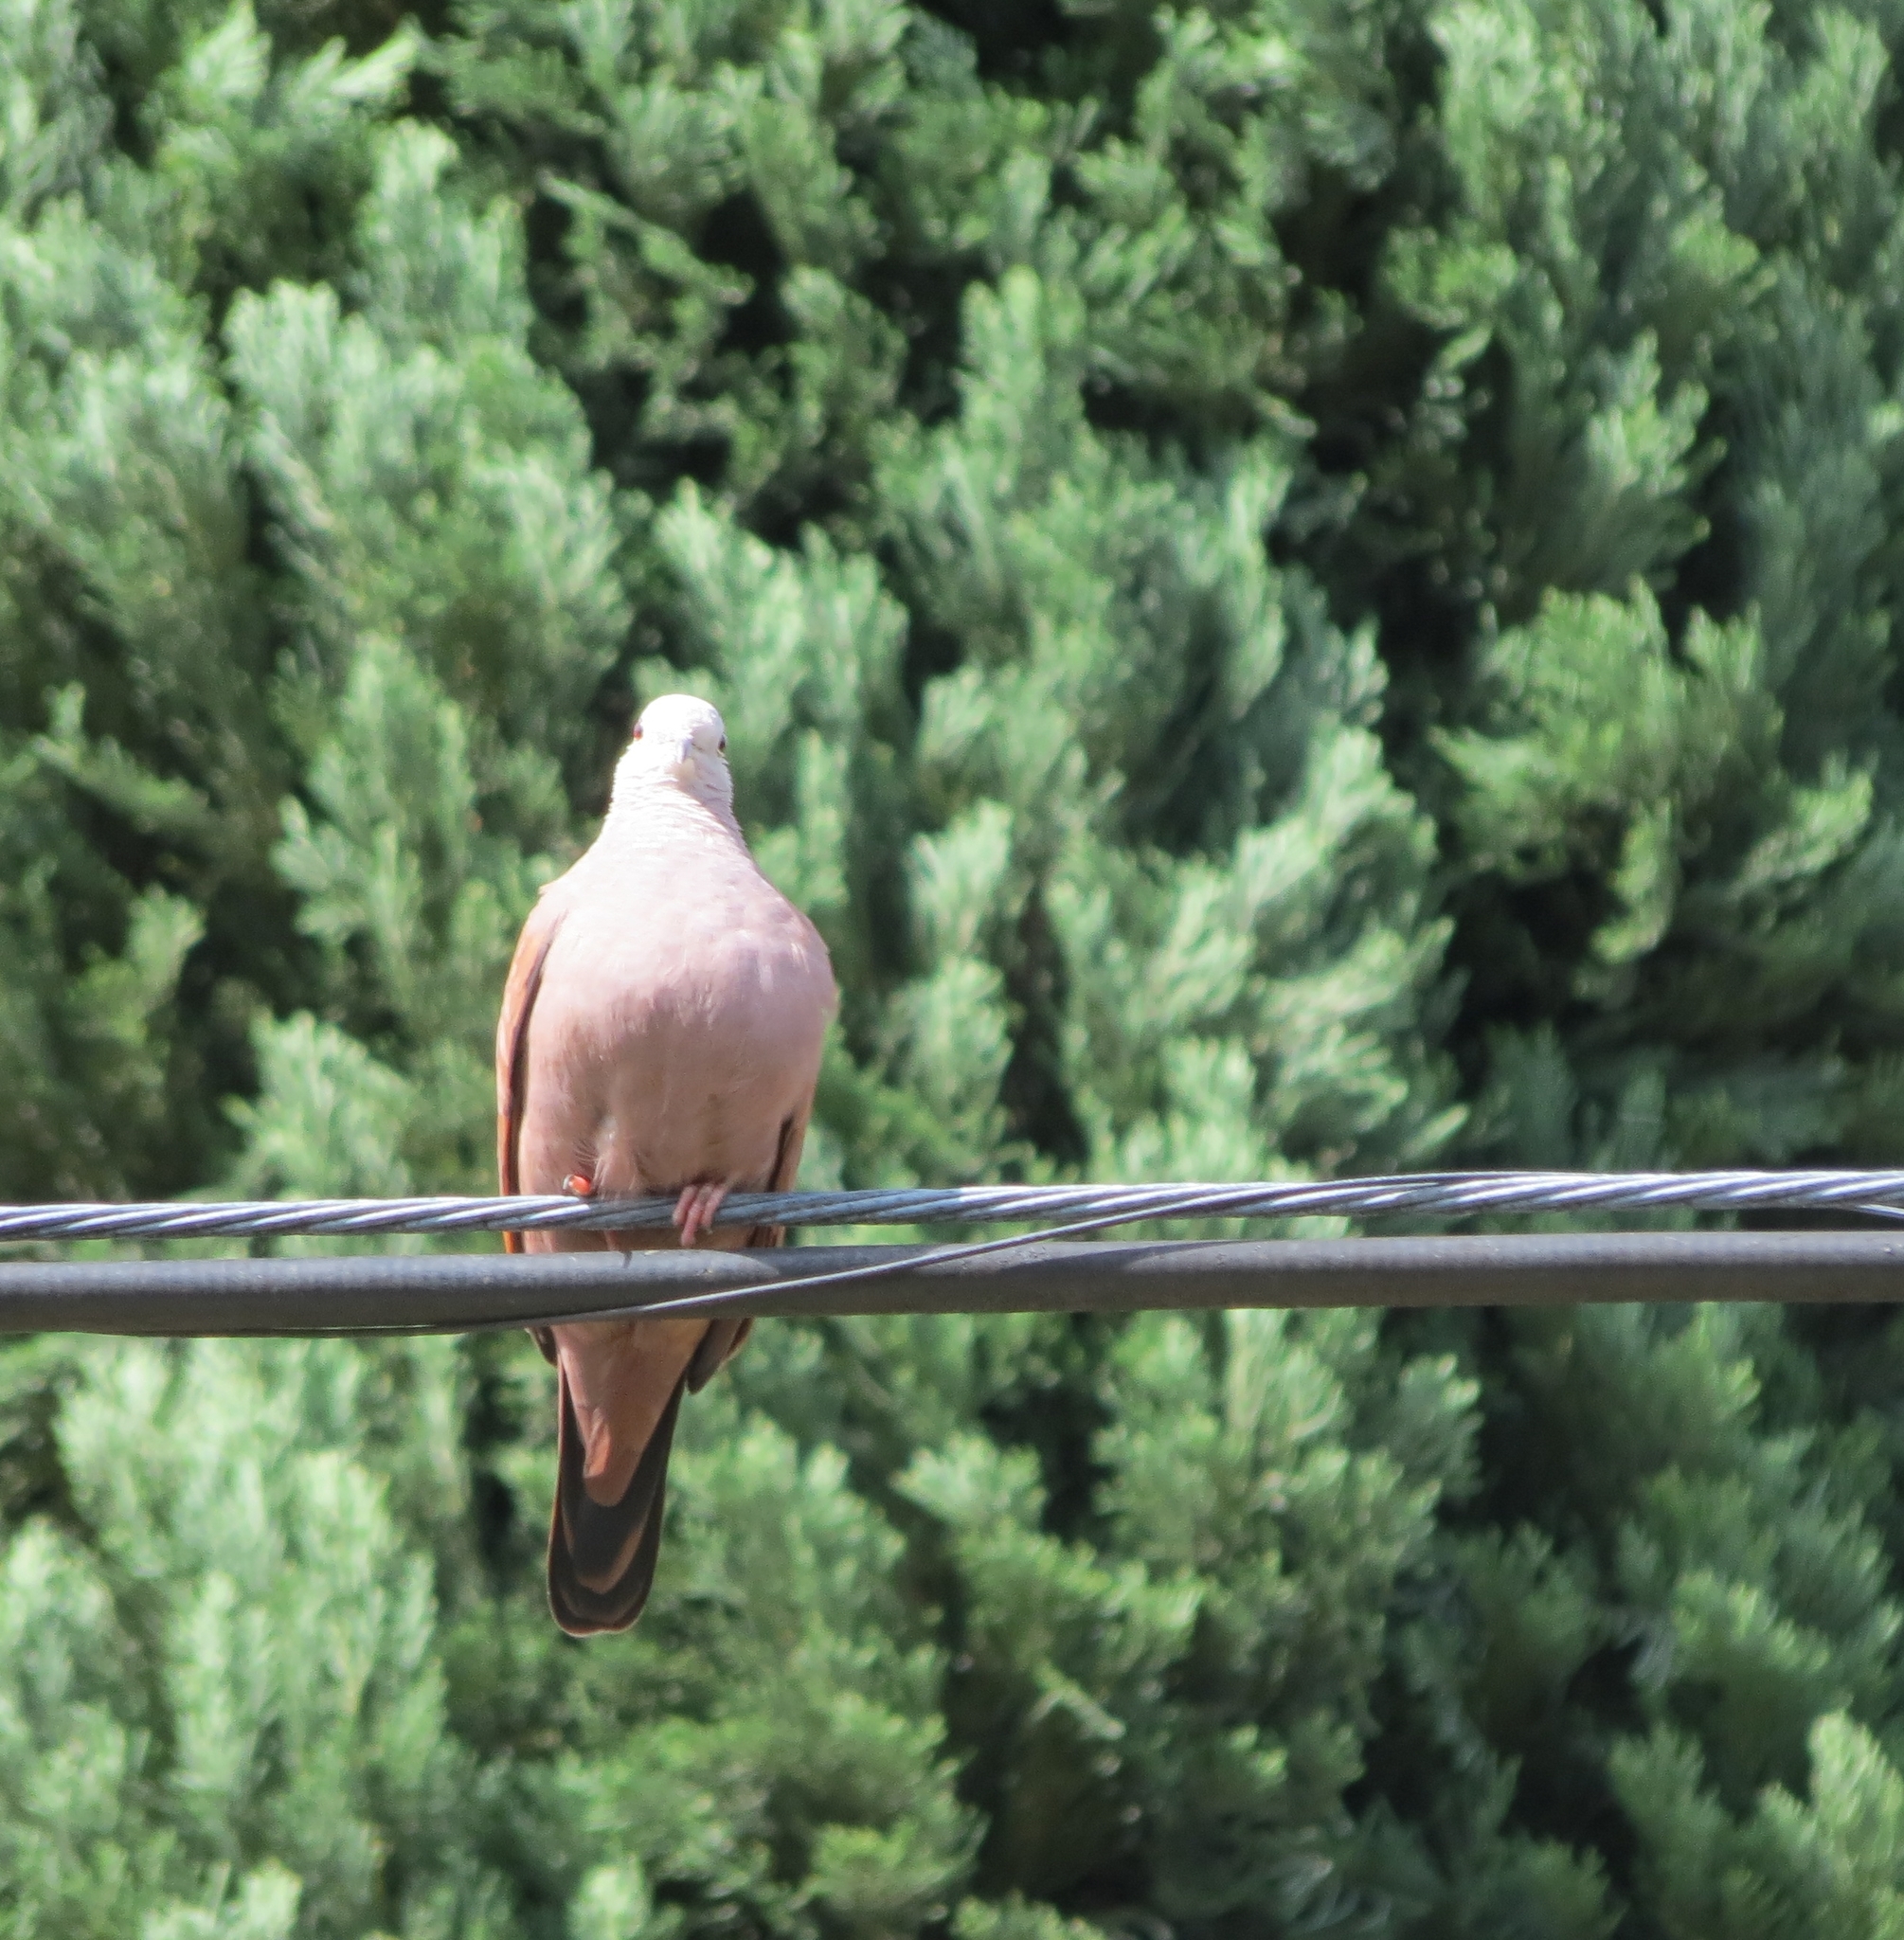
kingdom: Animalia
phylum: Chordata
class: Aves
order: Columbiformes
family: Columbidae
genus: Columbina
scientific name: Columbina talpacoti
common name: Ruddy ground dove
